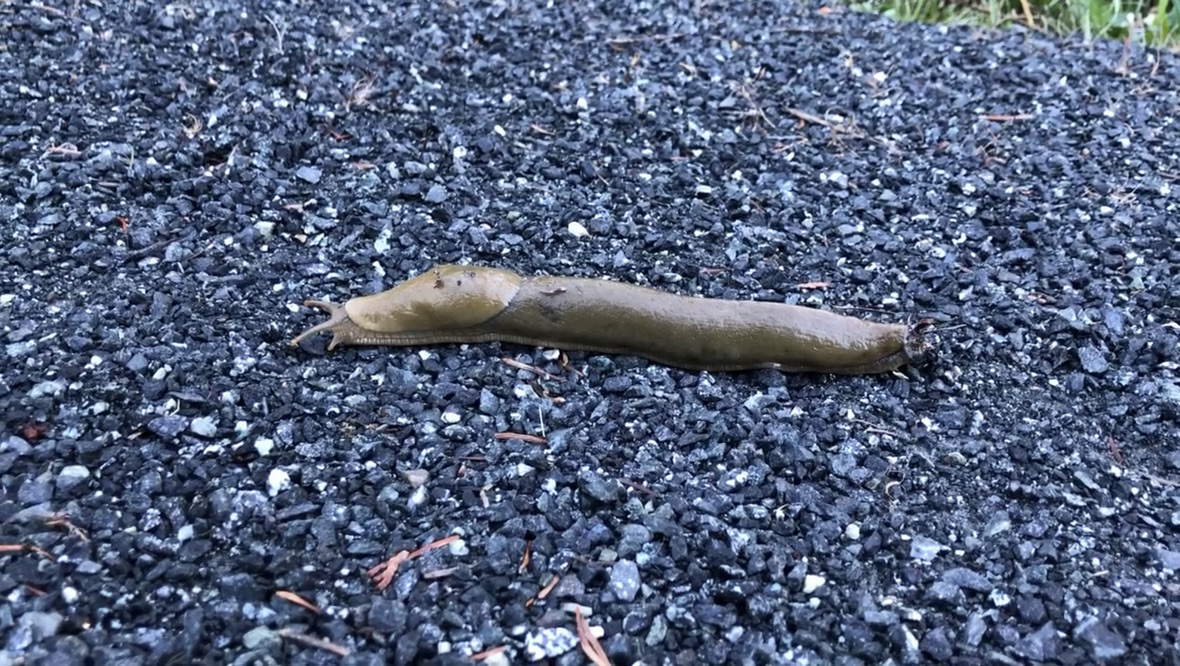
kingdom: Animalia
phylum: Mollusca
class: Gastropoda
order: Stylommatophora
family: Ariolimacidae
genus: Ariolimax
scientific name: Ariolimax columbianus
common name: Pacific banana slug
